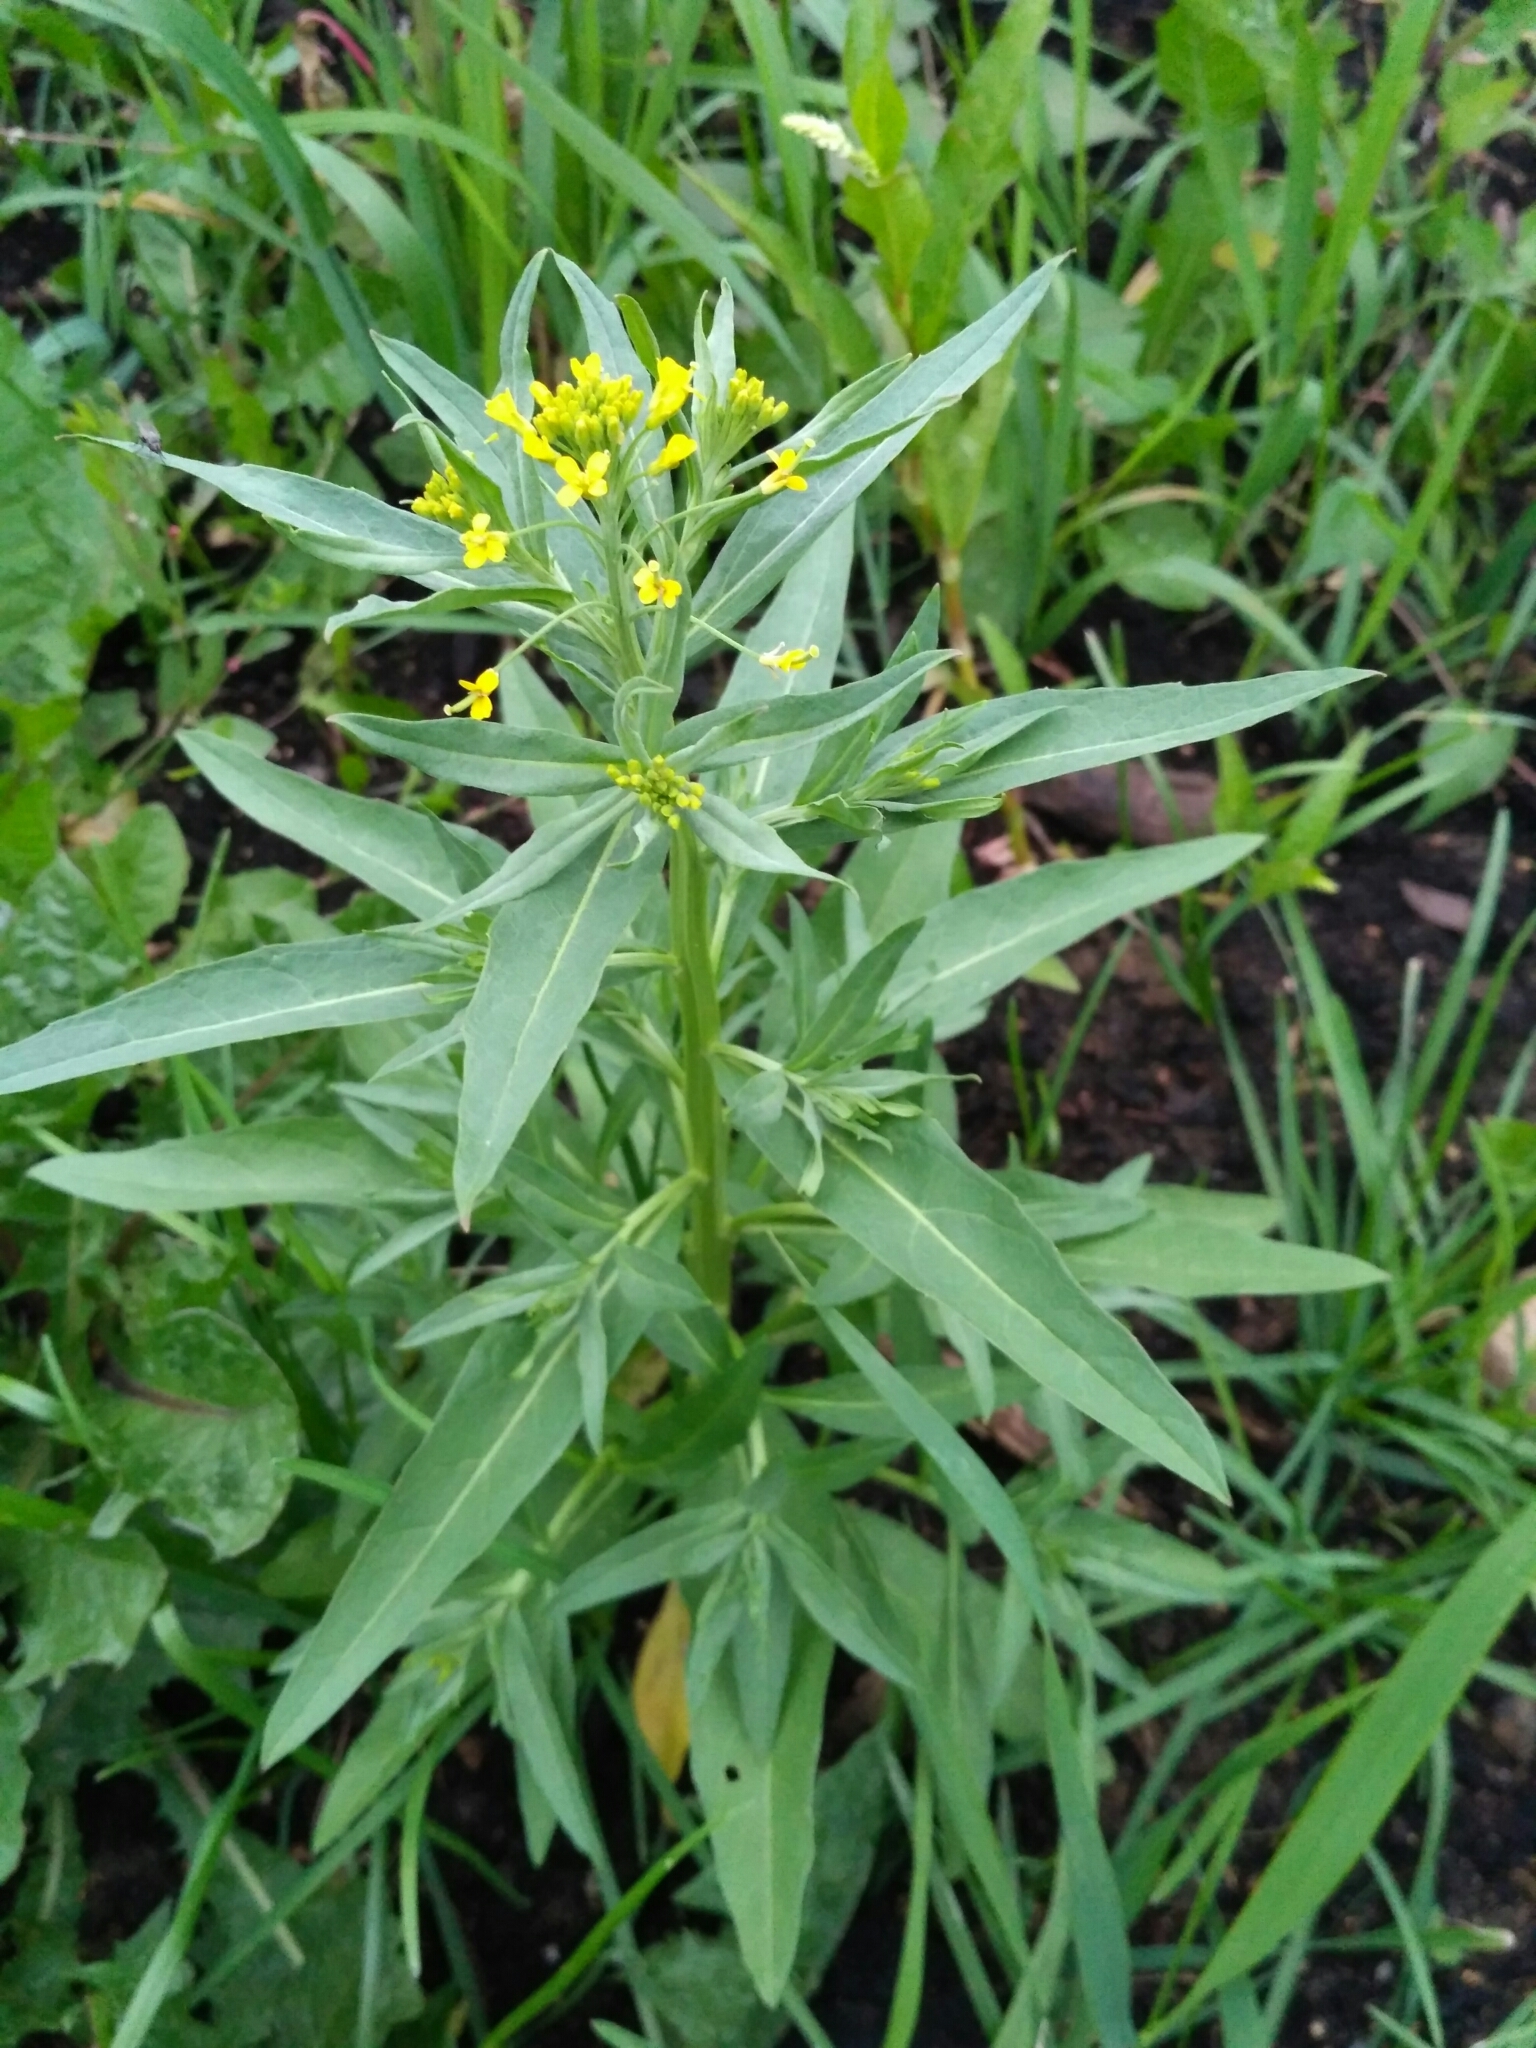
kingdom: Plantae
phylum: Tracheophyta
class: Magnoliopsida
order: Brassicales
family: Brassicaceae
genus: Erysimum
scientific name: Erysimum cheiranthoides
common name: Treacle mustard
